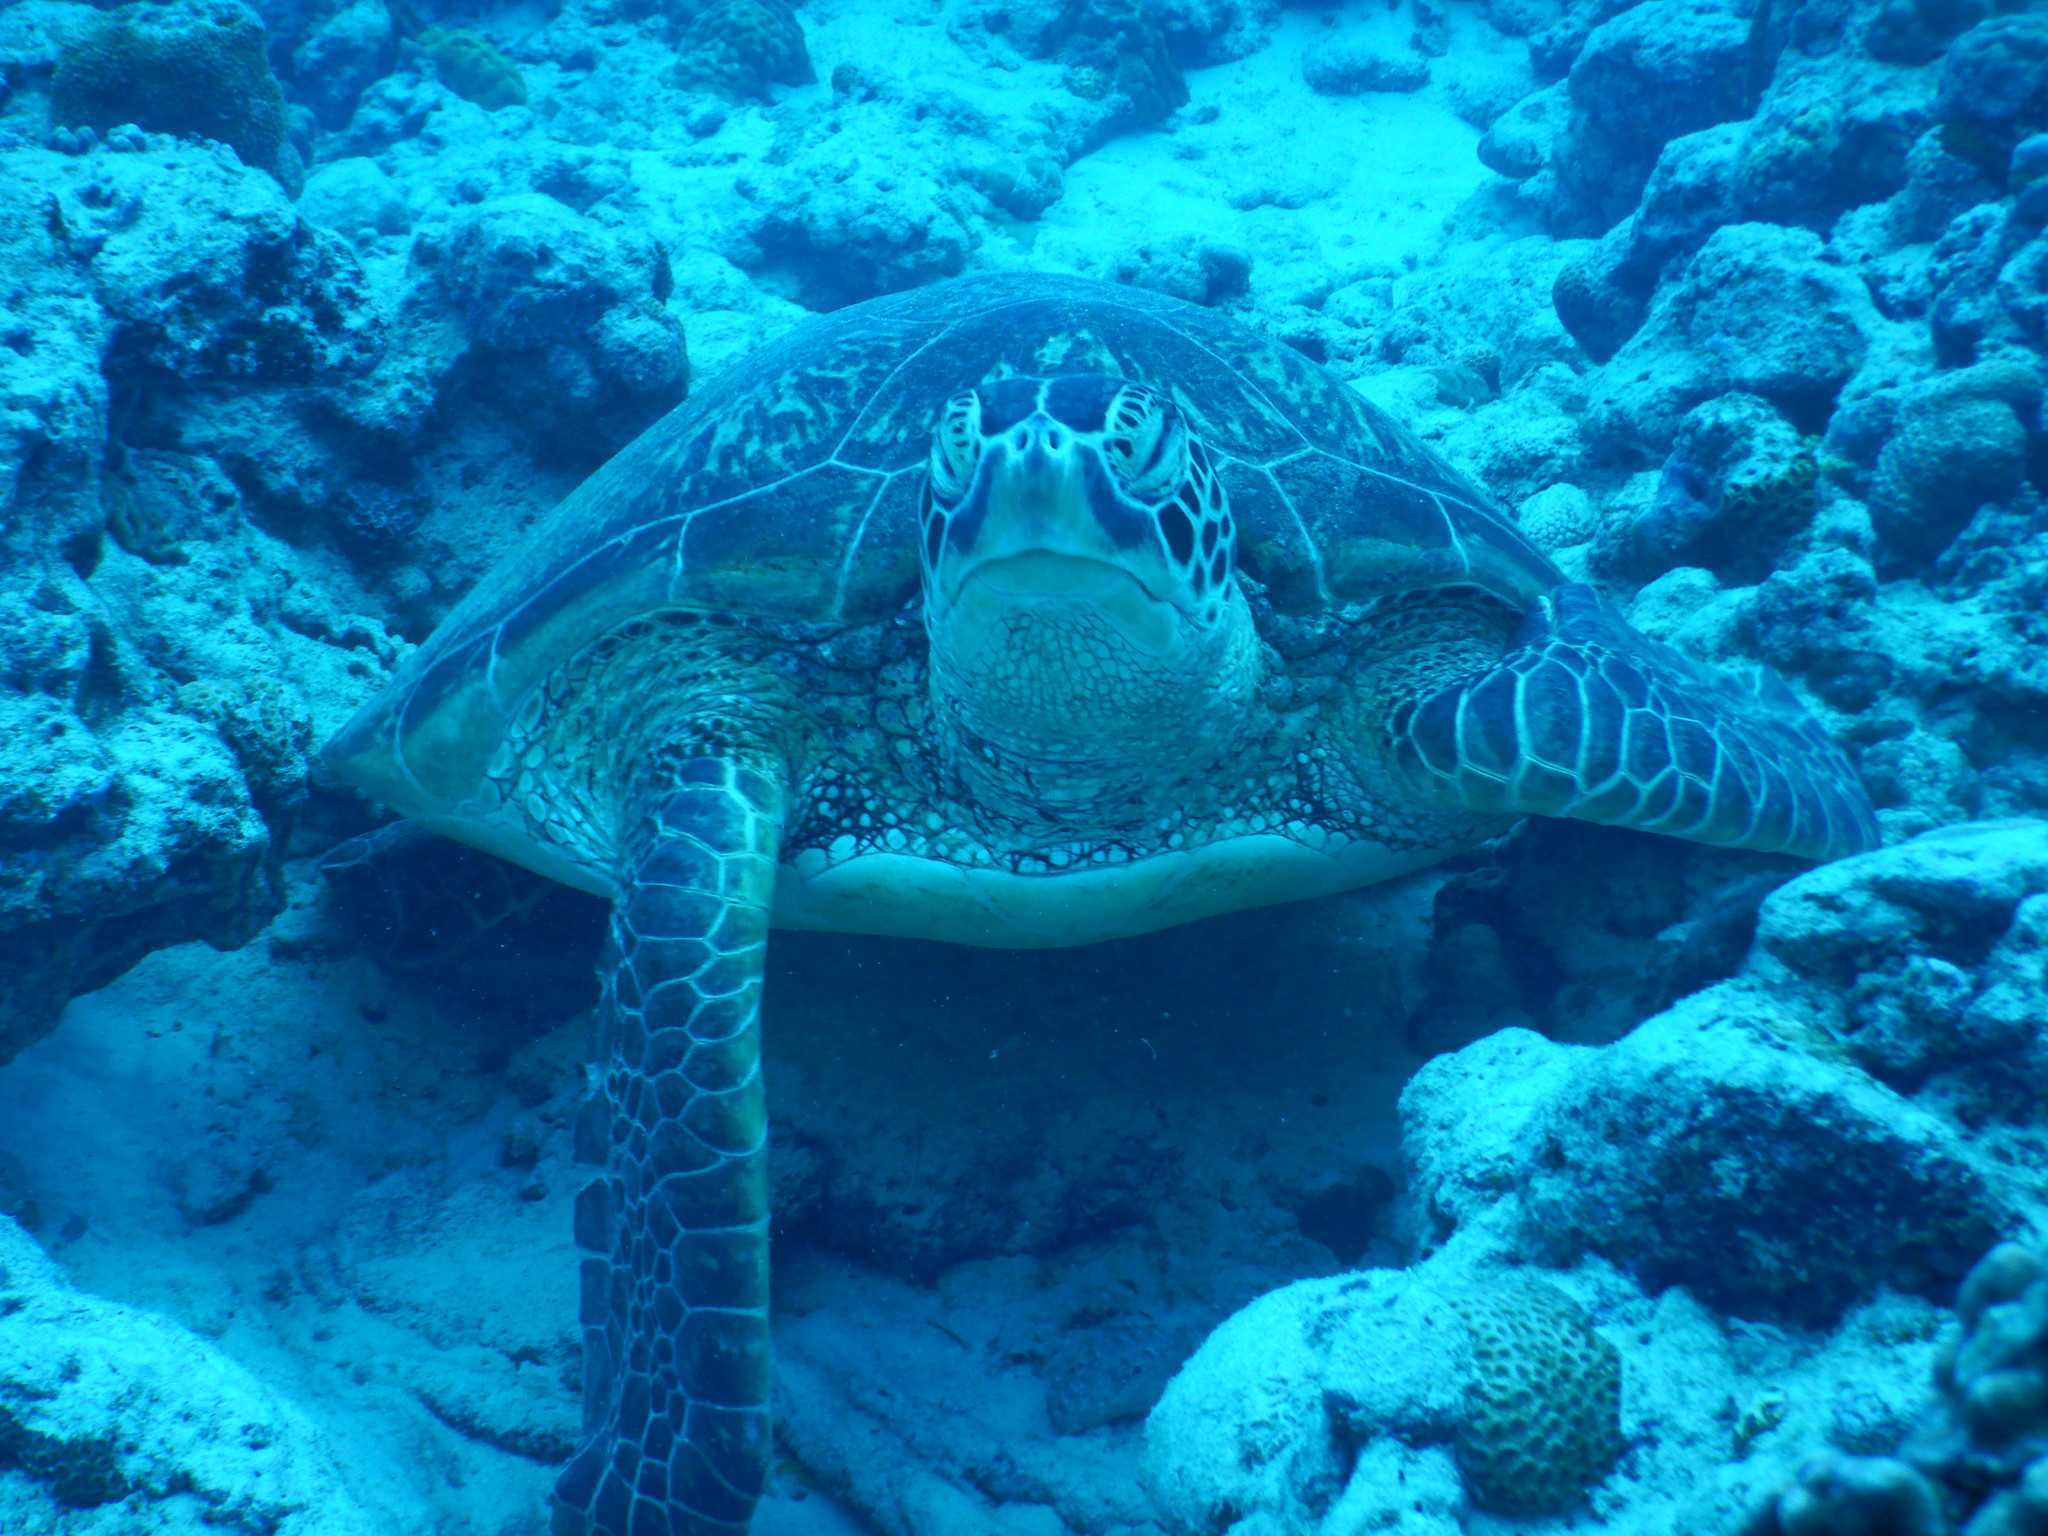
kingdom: Animalia
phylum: Chordata
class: Testudines
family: Cheloniidae
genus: Chelonia
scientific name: Chelonia mydas
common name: Green turtle
